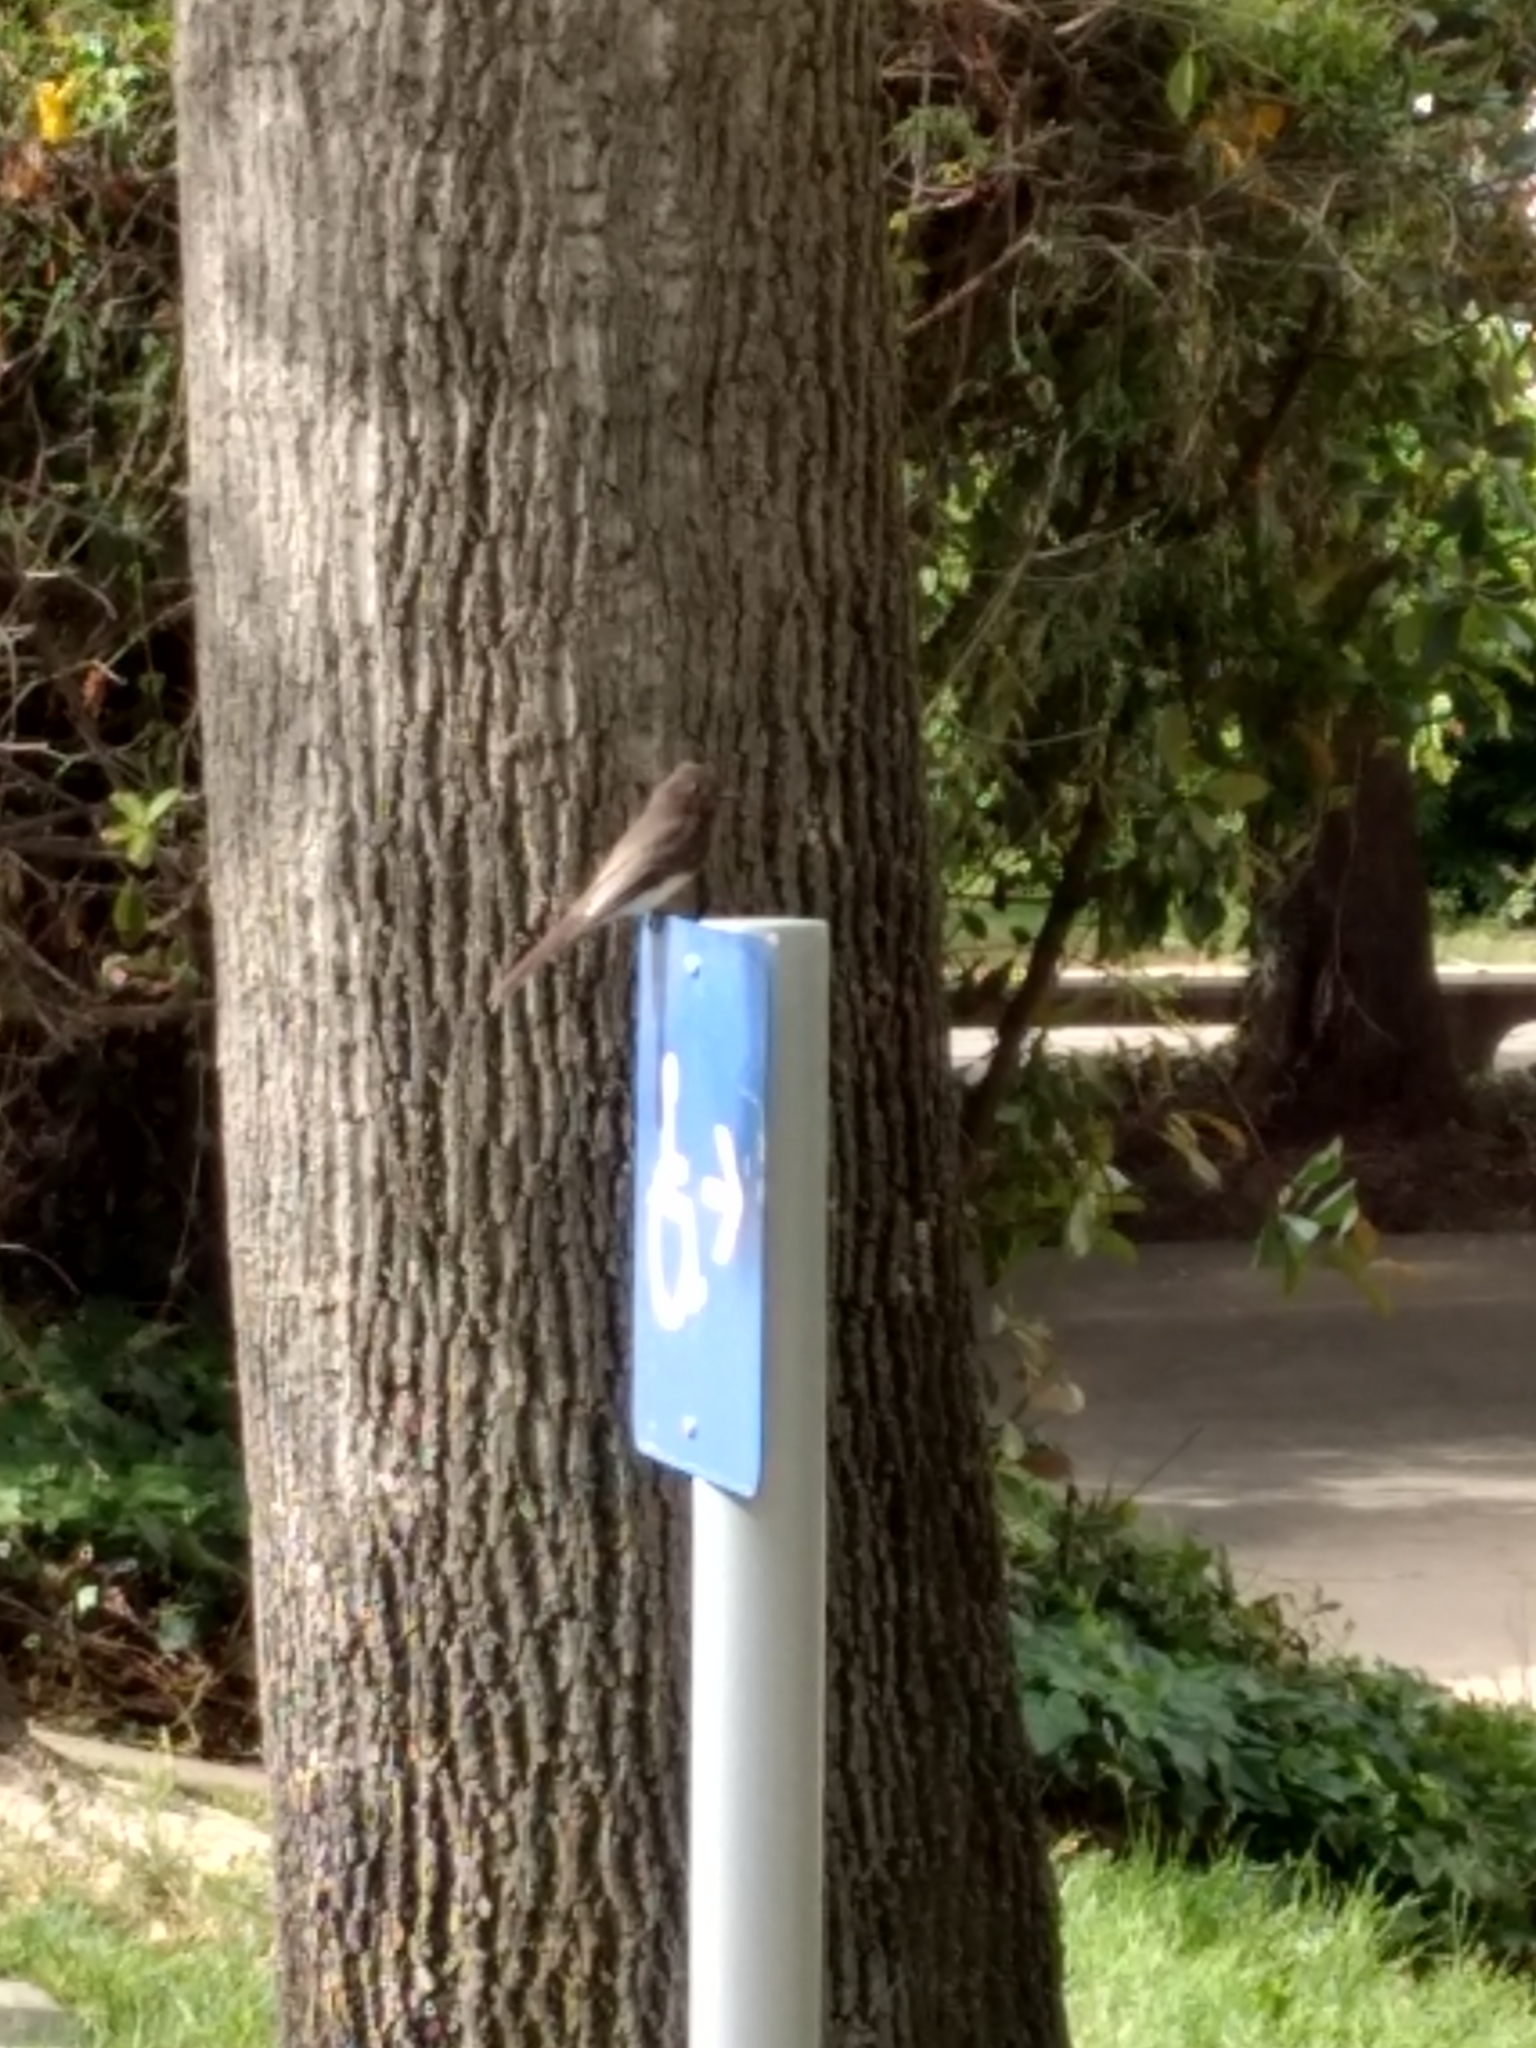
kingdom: Animalia
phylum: Chordata
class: Aves
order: Passeriformes
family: Tyrannidae
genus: Sayornis
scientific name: Sayornis nigricans
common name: Black phoebe
